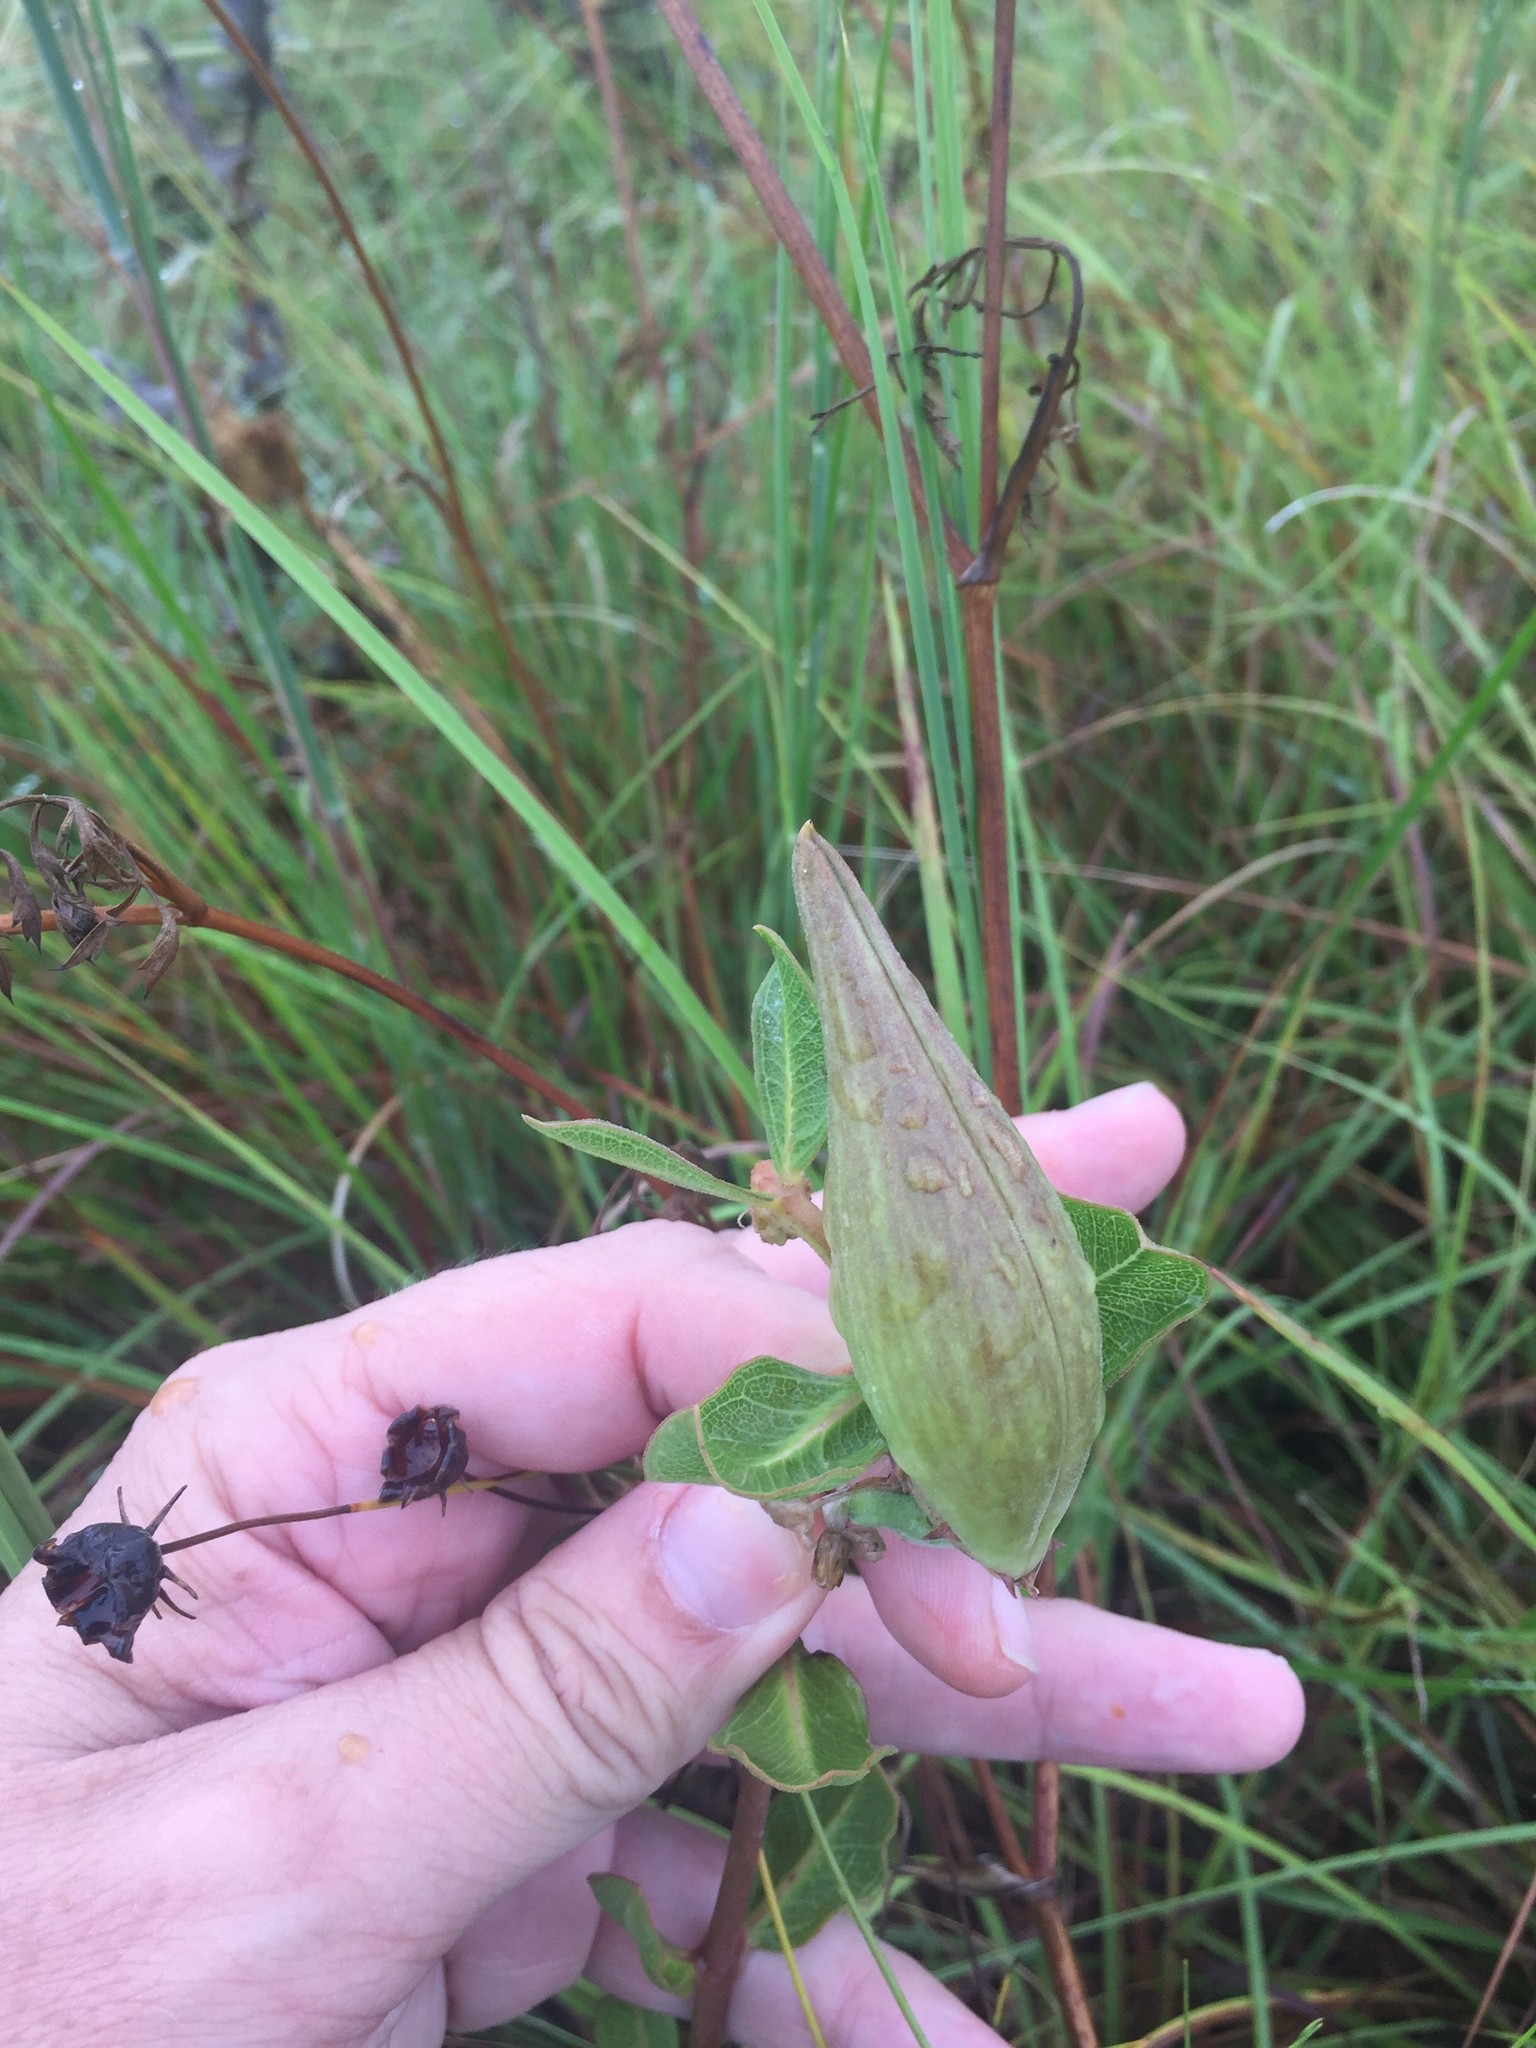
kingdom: Plantae
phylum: Tracheophyta
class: Magnoliopsida
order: Gentianales
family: Apocynaceae
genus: Asclepias
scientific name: Asclepias viridiflora
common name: Green comet milkweed
